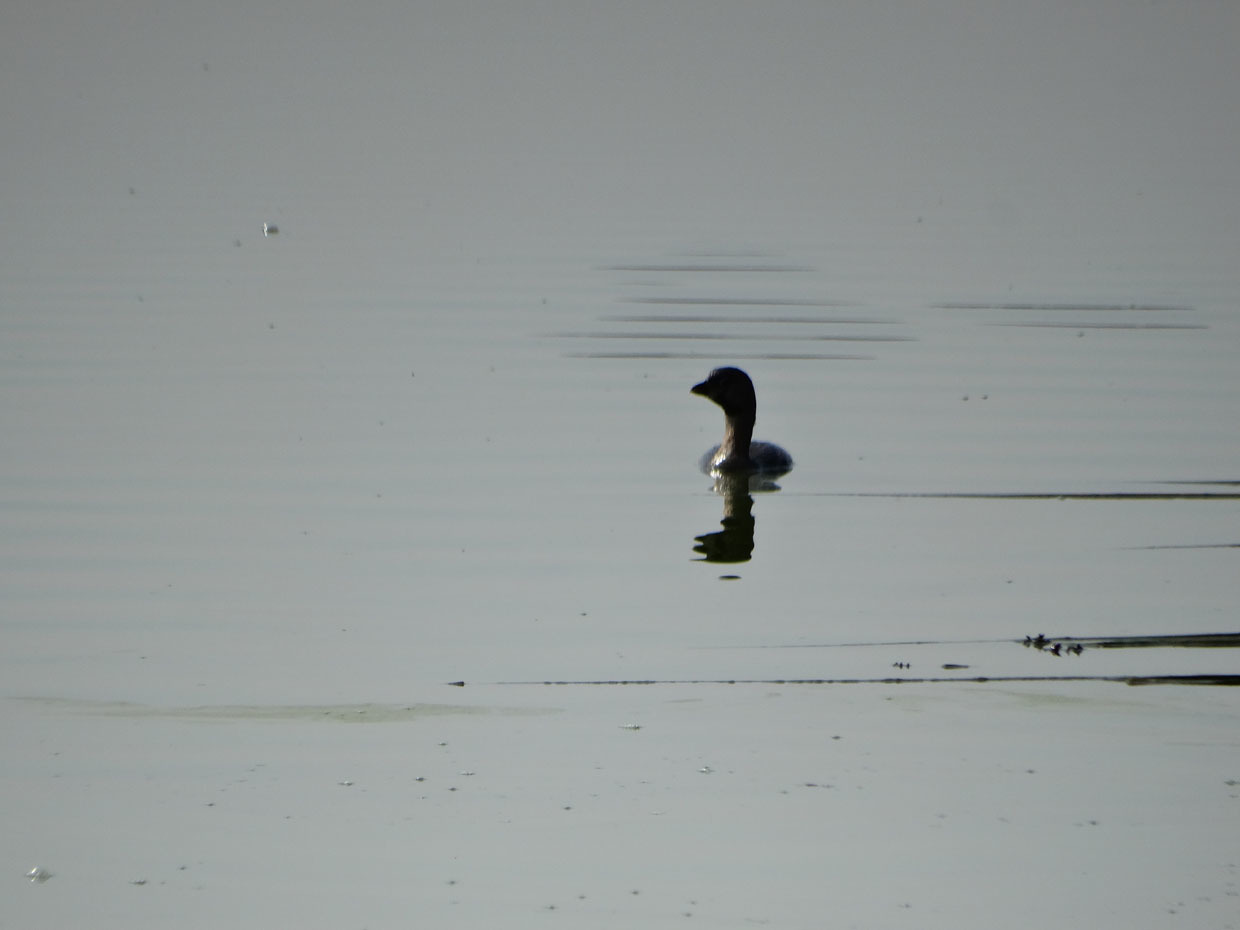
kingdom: Animalia
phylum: Chordata
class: Aves
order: Podicipediformes
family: Podicipedidae
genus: Podilymbus
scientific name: Podilymbus podiceps
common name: Pied-billed grebe
